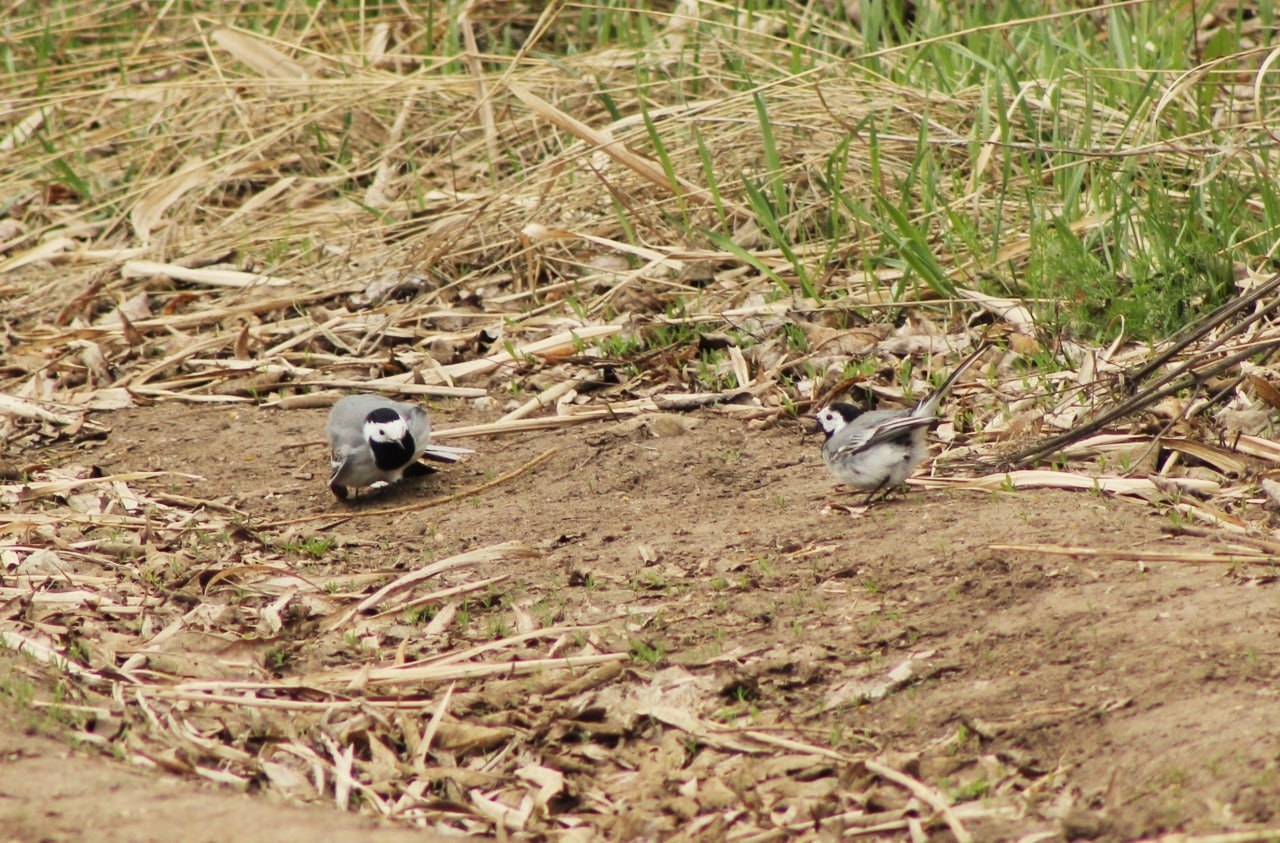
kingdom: Animalia
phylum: Chordata
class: Aves
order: Passeriformes
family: Motacillidae
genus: Motacilla
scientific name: Motacilla alba
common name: White wagtail
